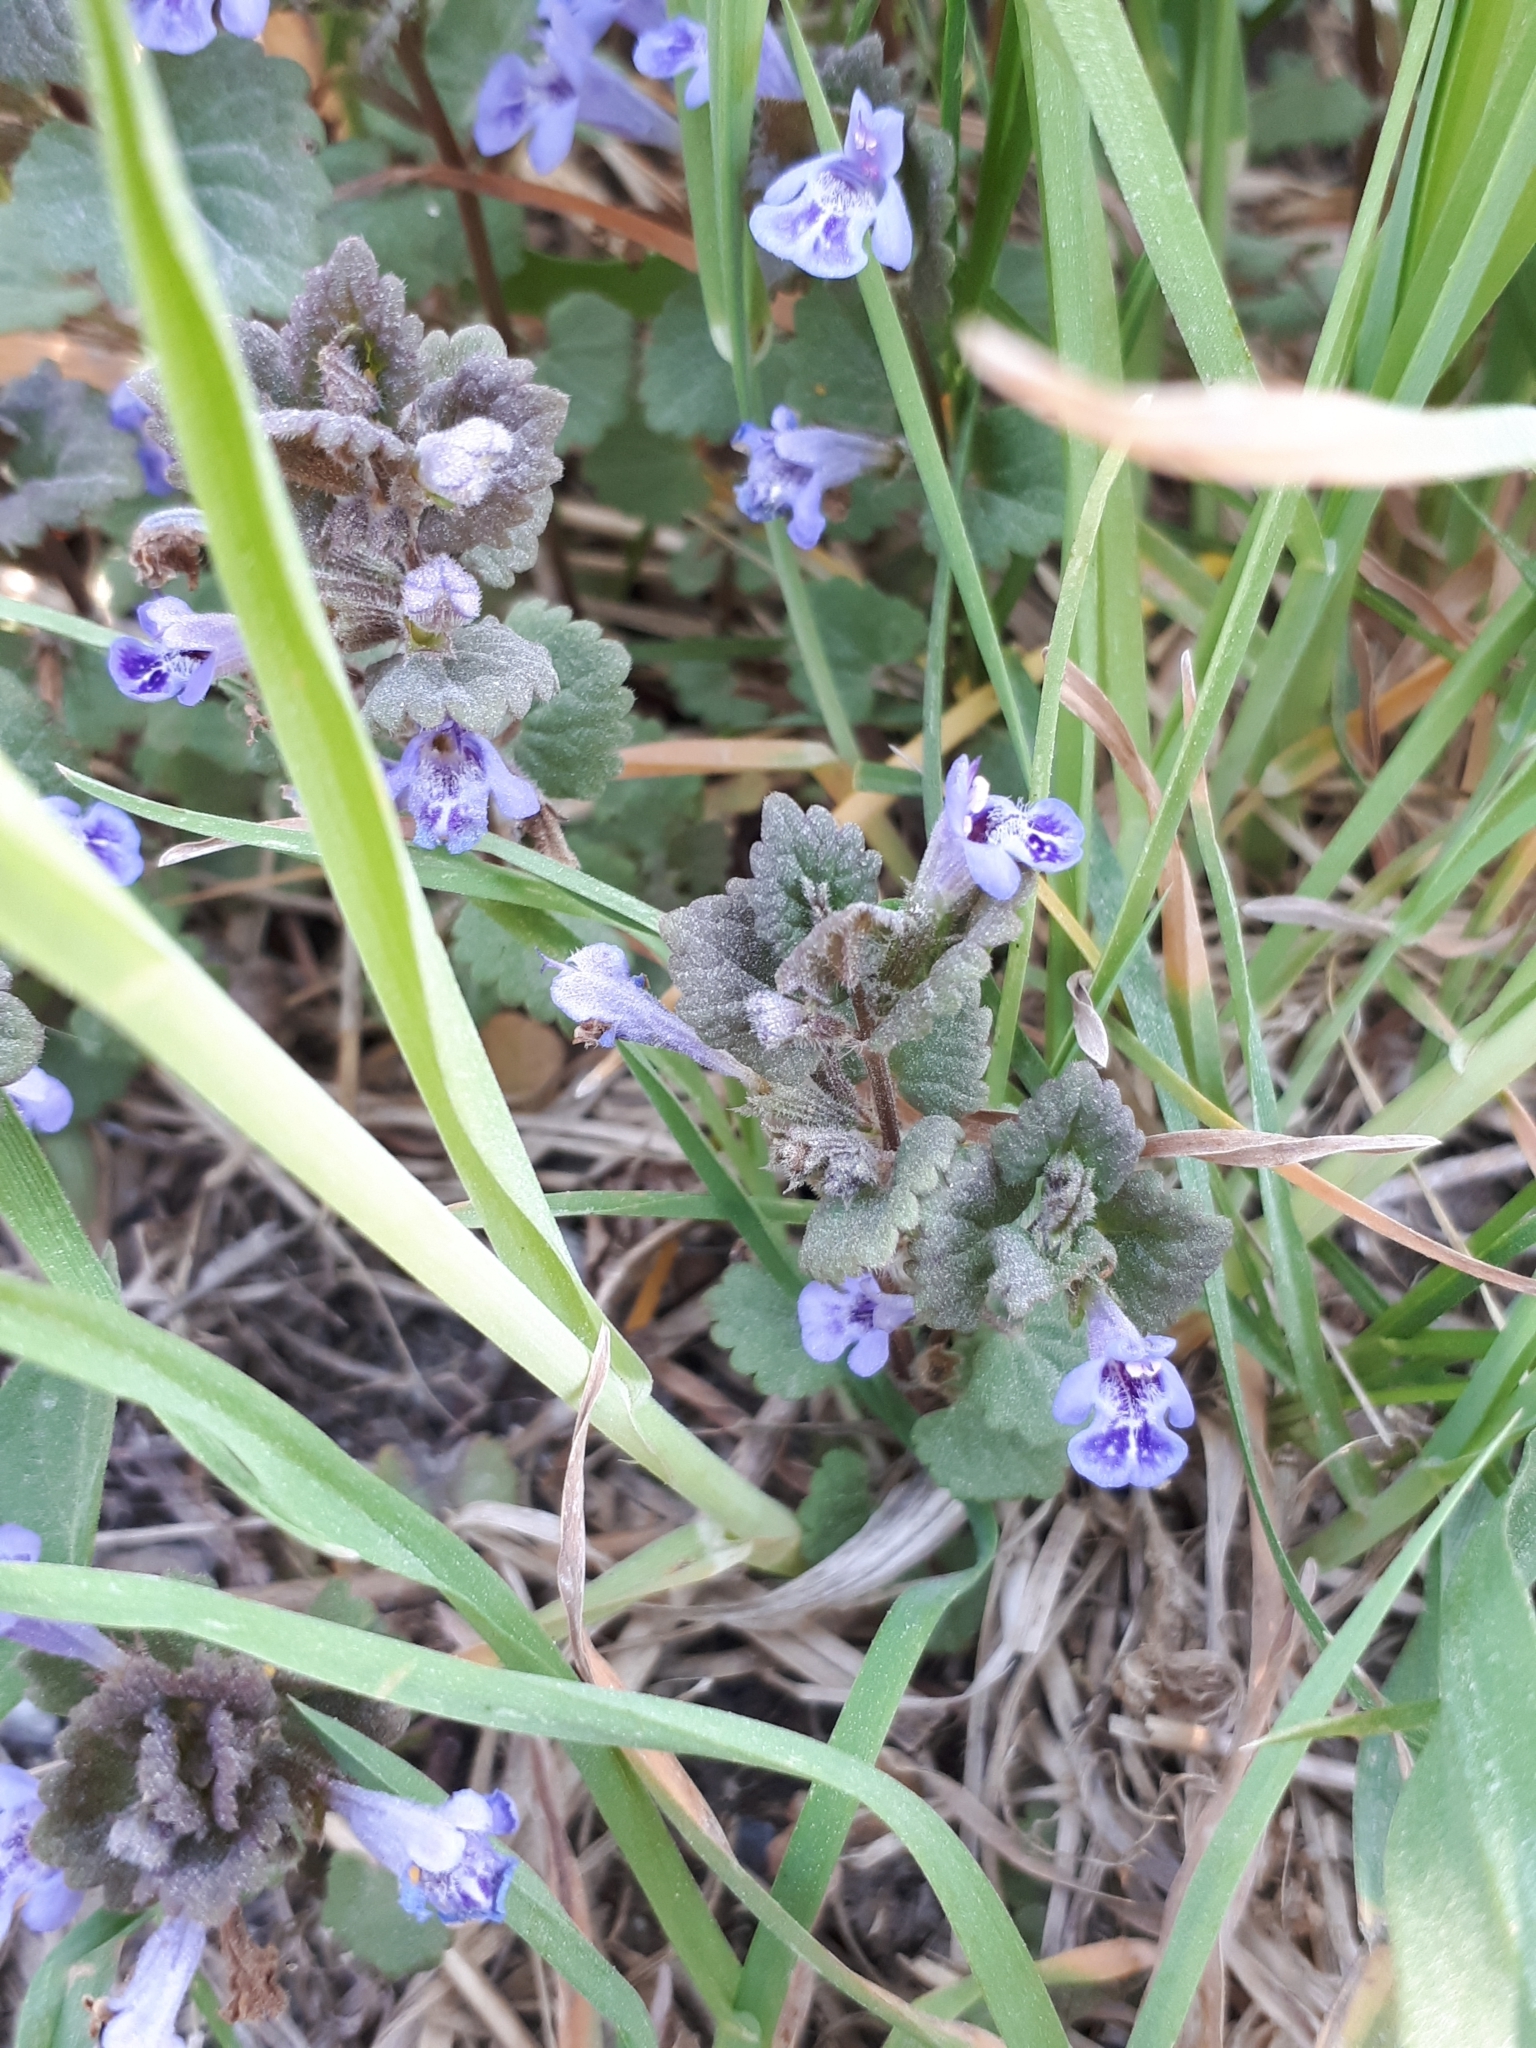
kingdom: Plantae
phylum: Tracheophyta
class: Magnoliopsida
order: Lamiales
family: Lamiaceae
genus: Glechoma
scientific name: Glechoma hederacea
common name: Ground ivy
